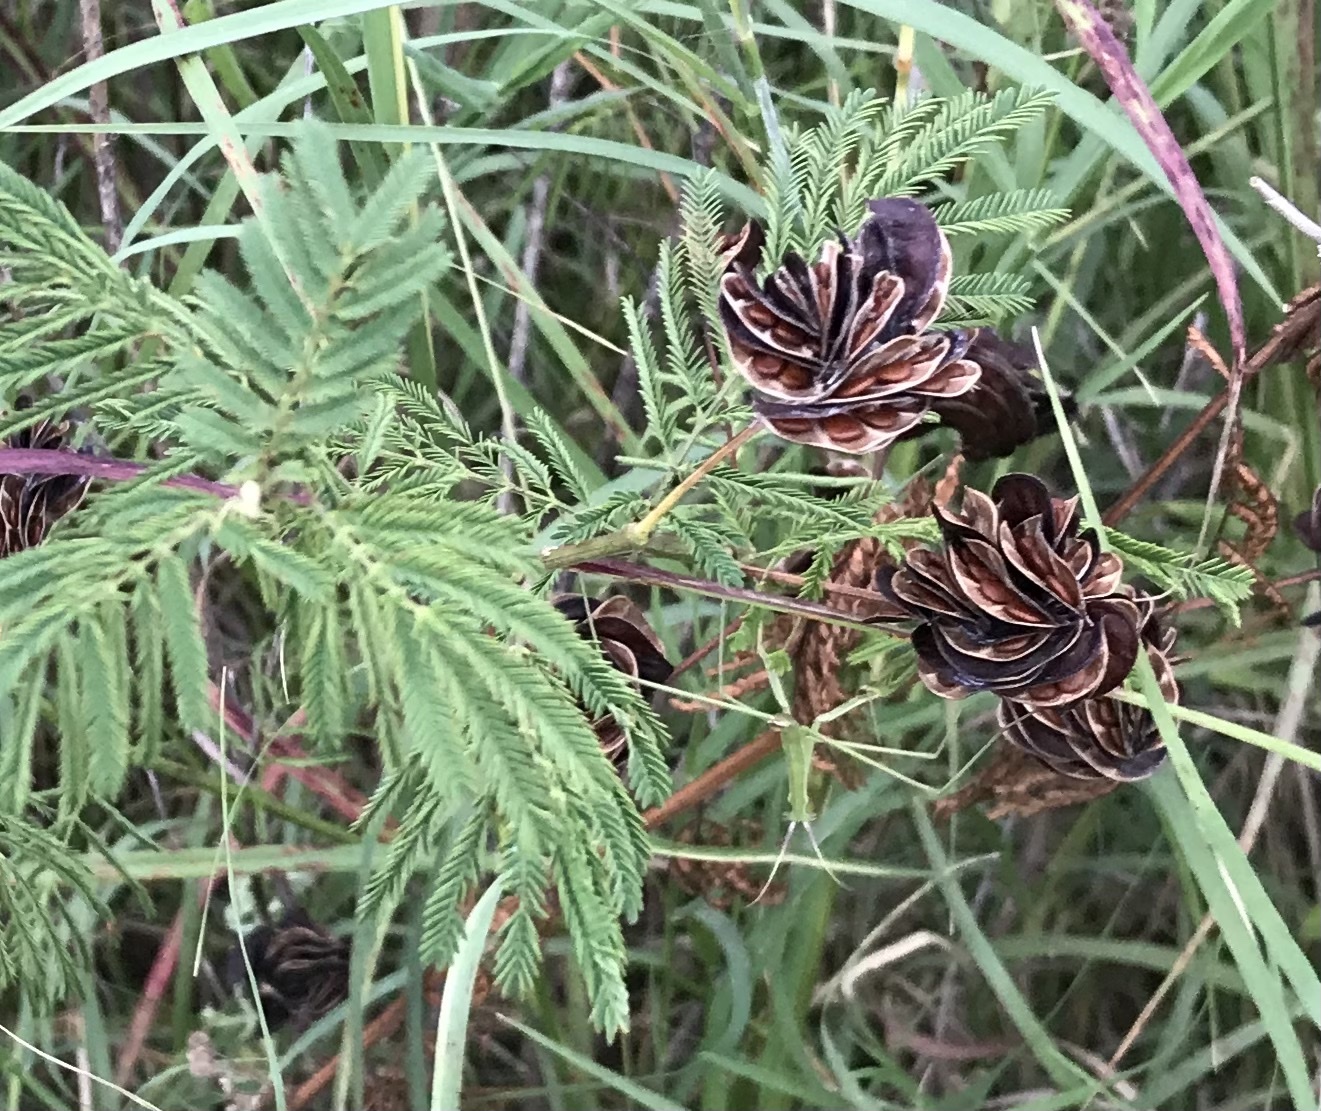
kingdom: Plantae
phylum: Tracheophyta
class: Magnoliopsida
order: Fabales
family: Fabaceae
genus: Desmanthus
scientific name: Desmanthus illinoensis
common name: Illinois bundle-flower
